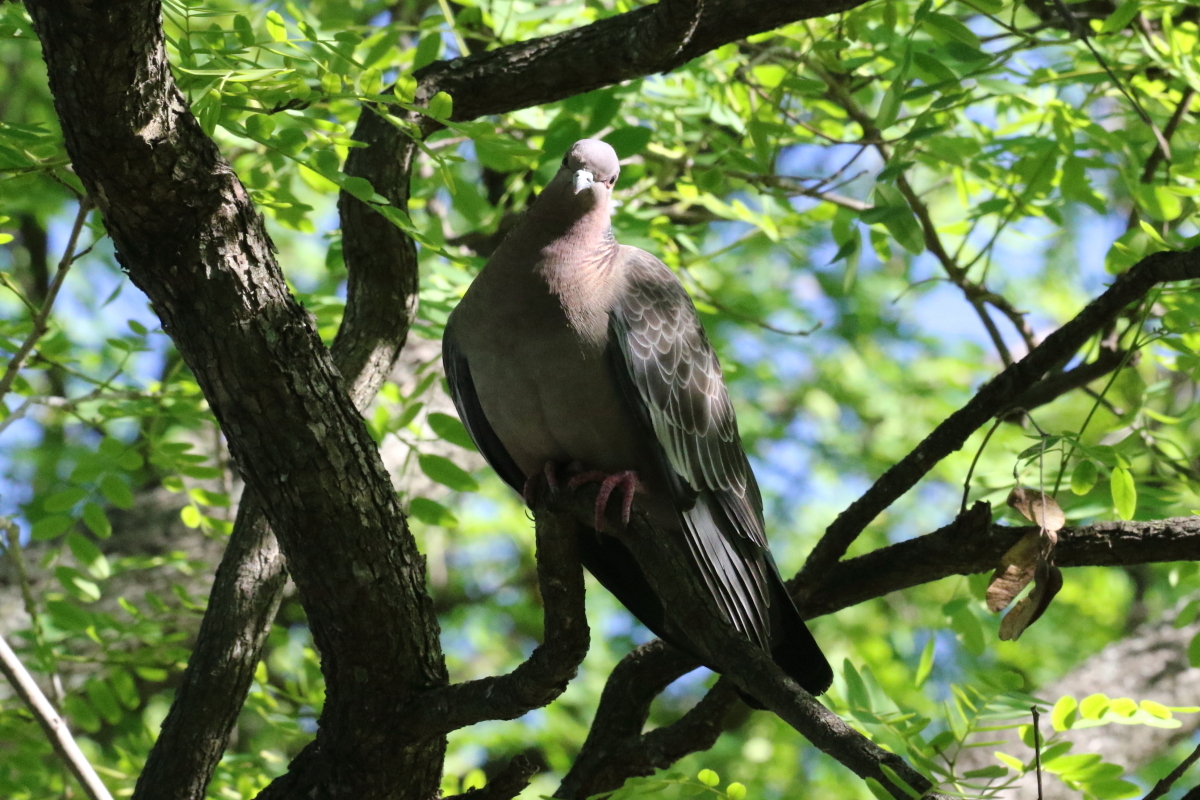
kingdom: Animalia
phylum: Chordata
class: Aves
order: Columbiformes
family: Columbidae
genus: Patagioenas
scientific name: Patagioenas picazuro
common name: Picazuro pigeon
